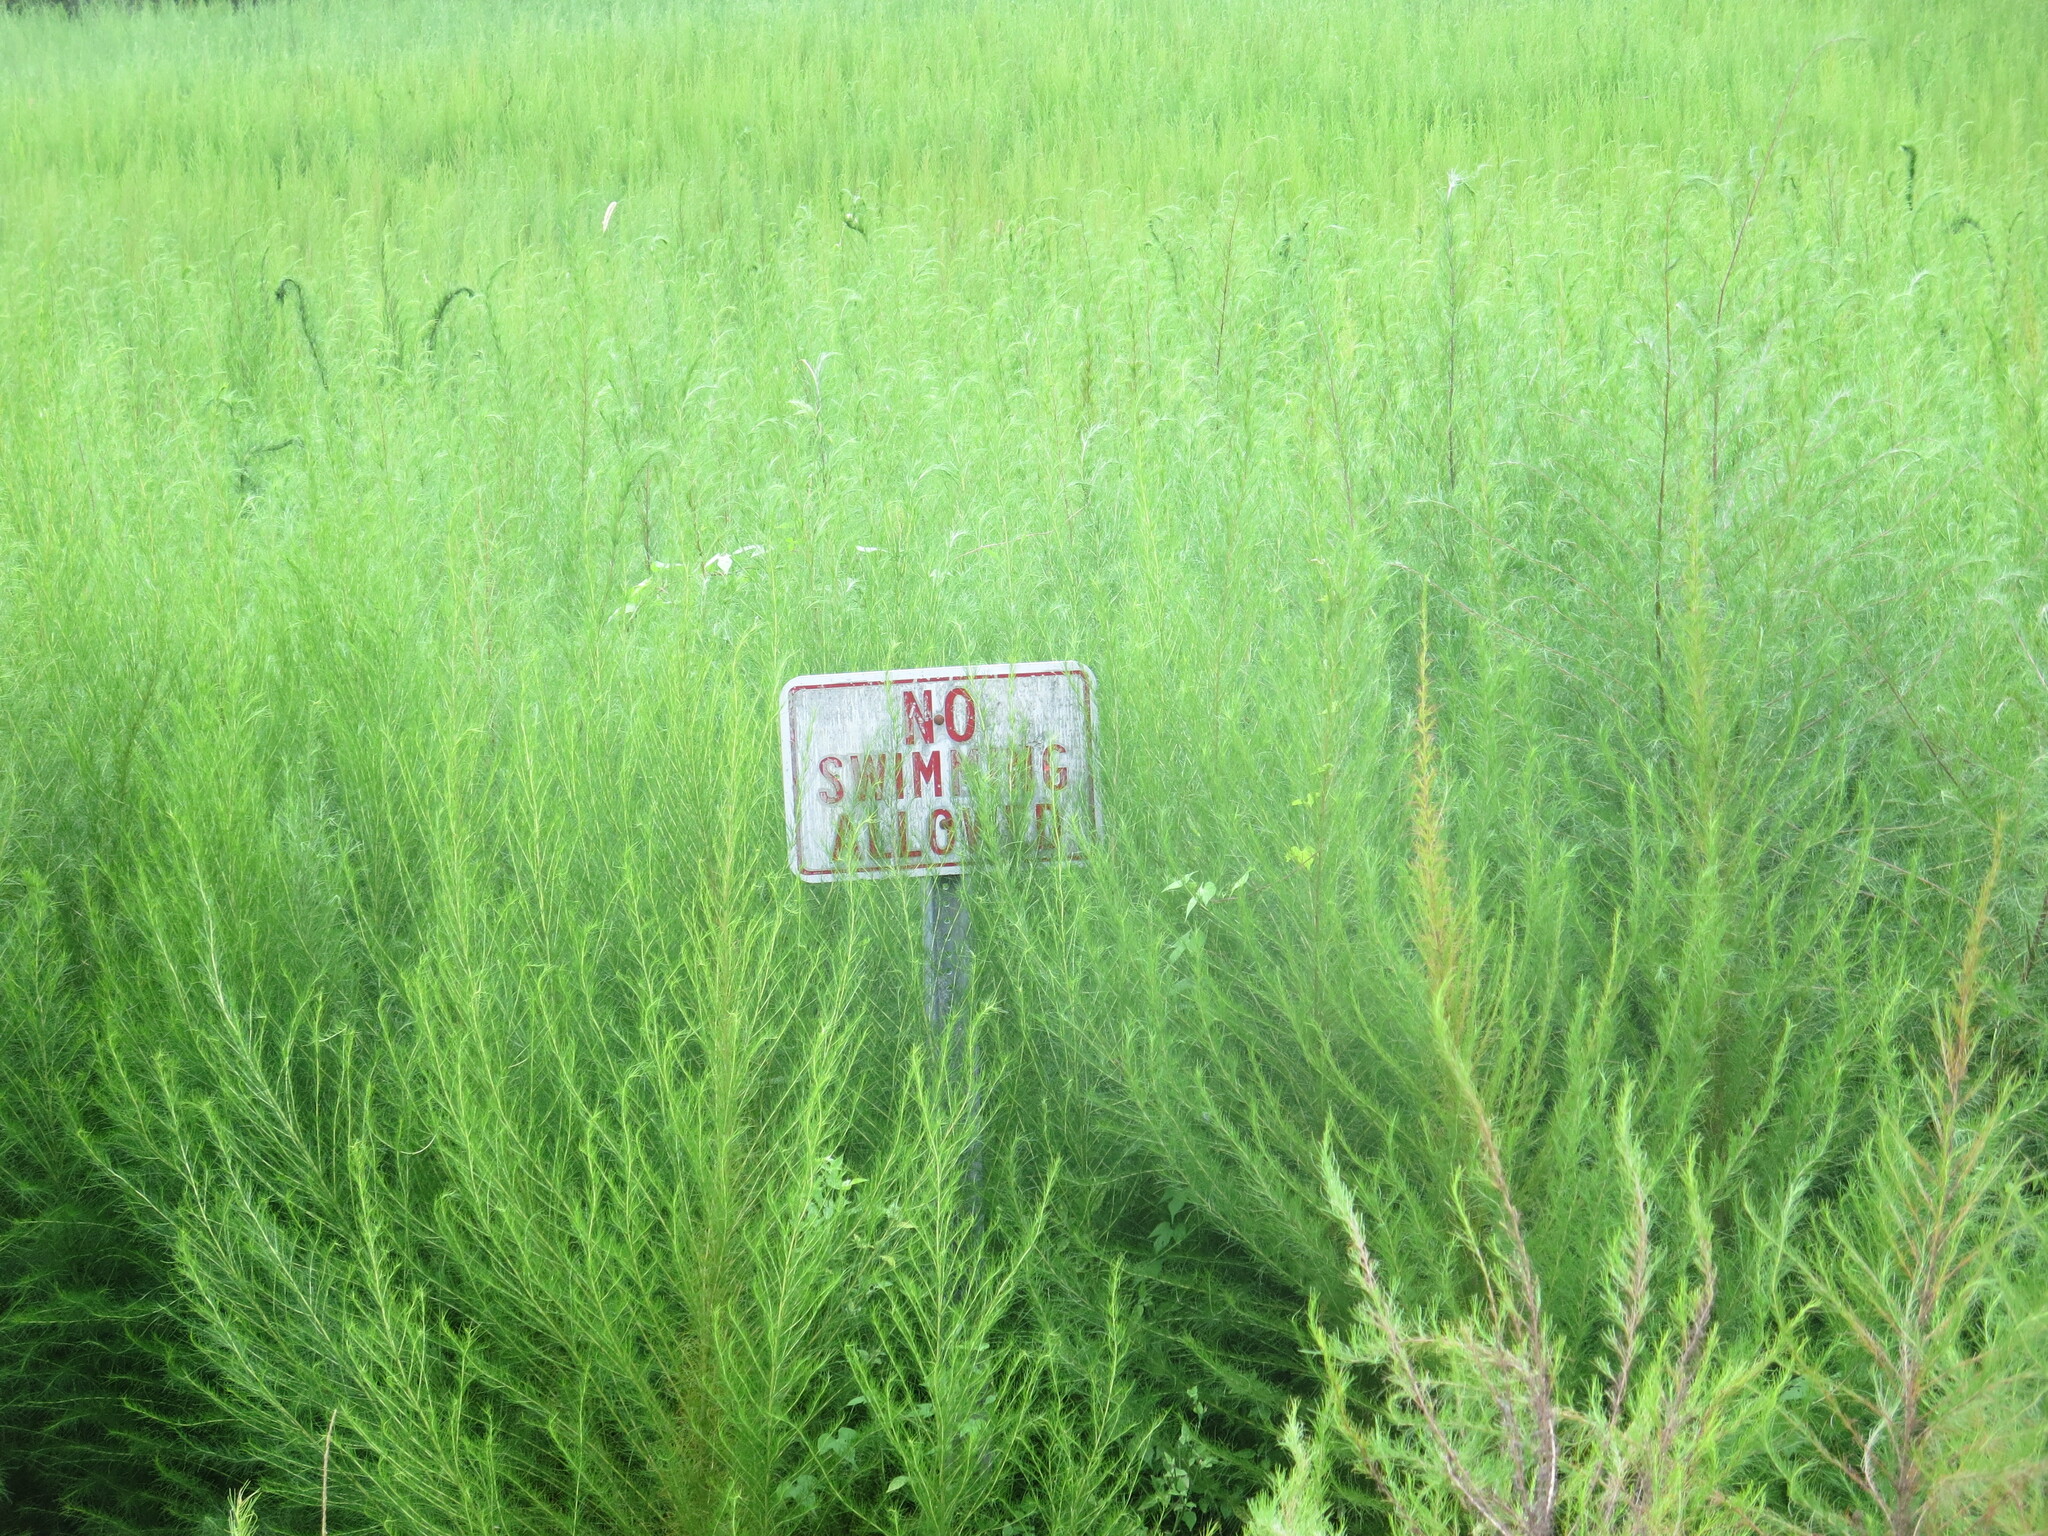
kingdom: Plantae
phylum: Tracheophyta
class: Magnoliopsida
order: Asterales
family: Asteraceae
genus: Eupatorium
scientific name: Eupatorium capillifolium
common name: Dog-fennel
